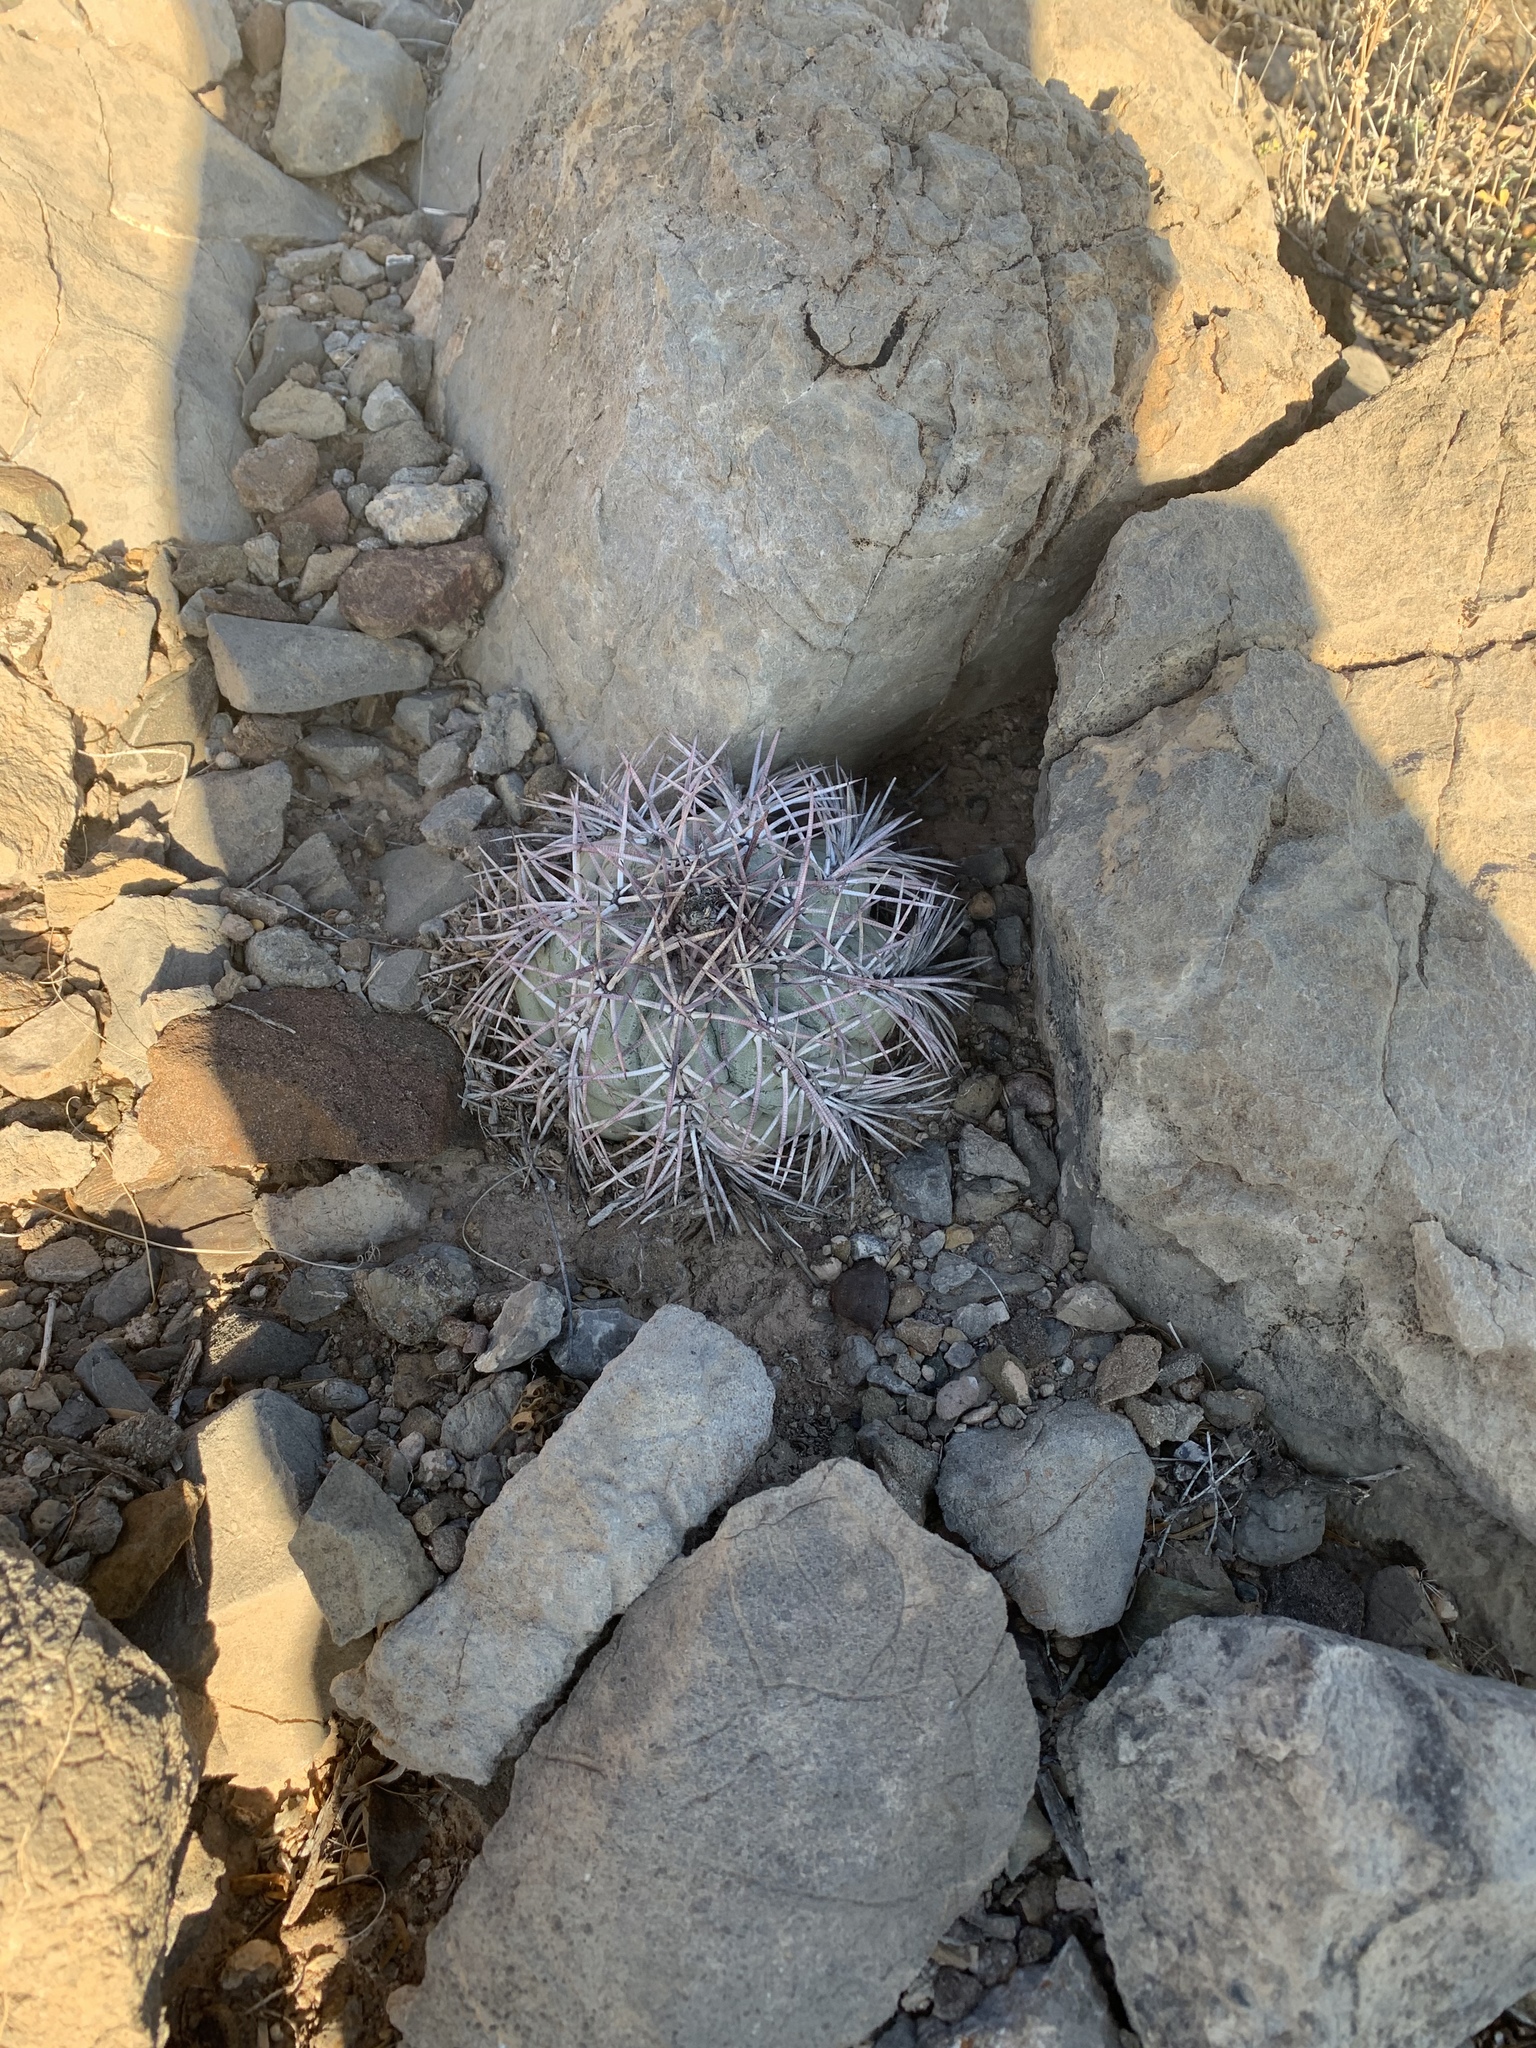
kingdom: Plantae
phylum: Tracheophyta
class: Magnoliopsida
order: Caryophyllales
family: Cactaceae
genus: Echinocactus
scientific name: Echinocactus horizonthalonius
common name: Devilshead
